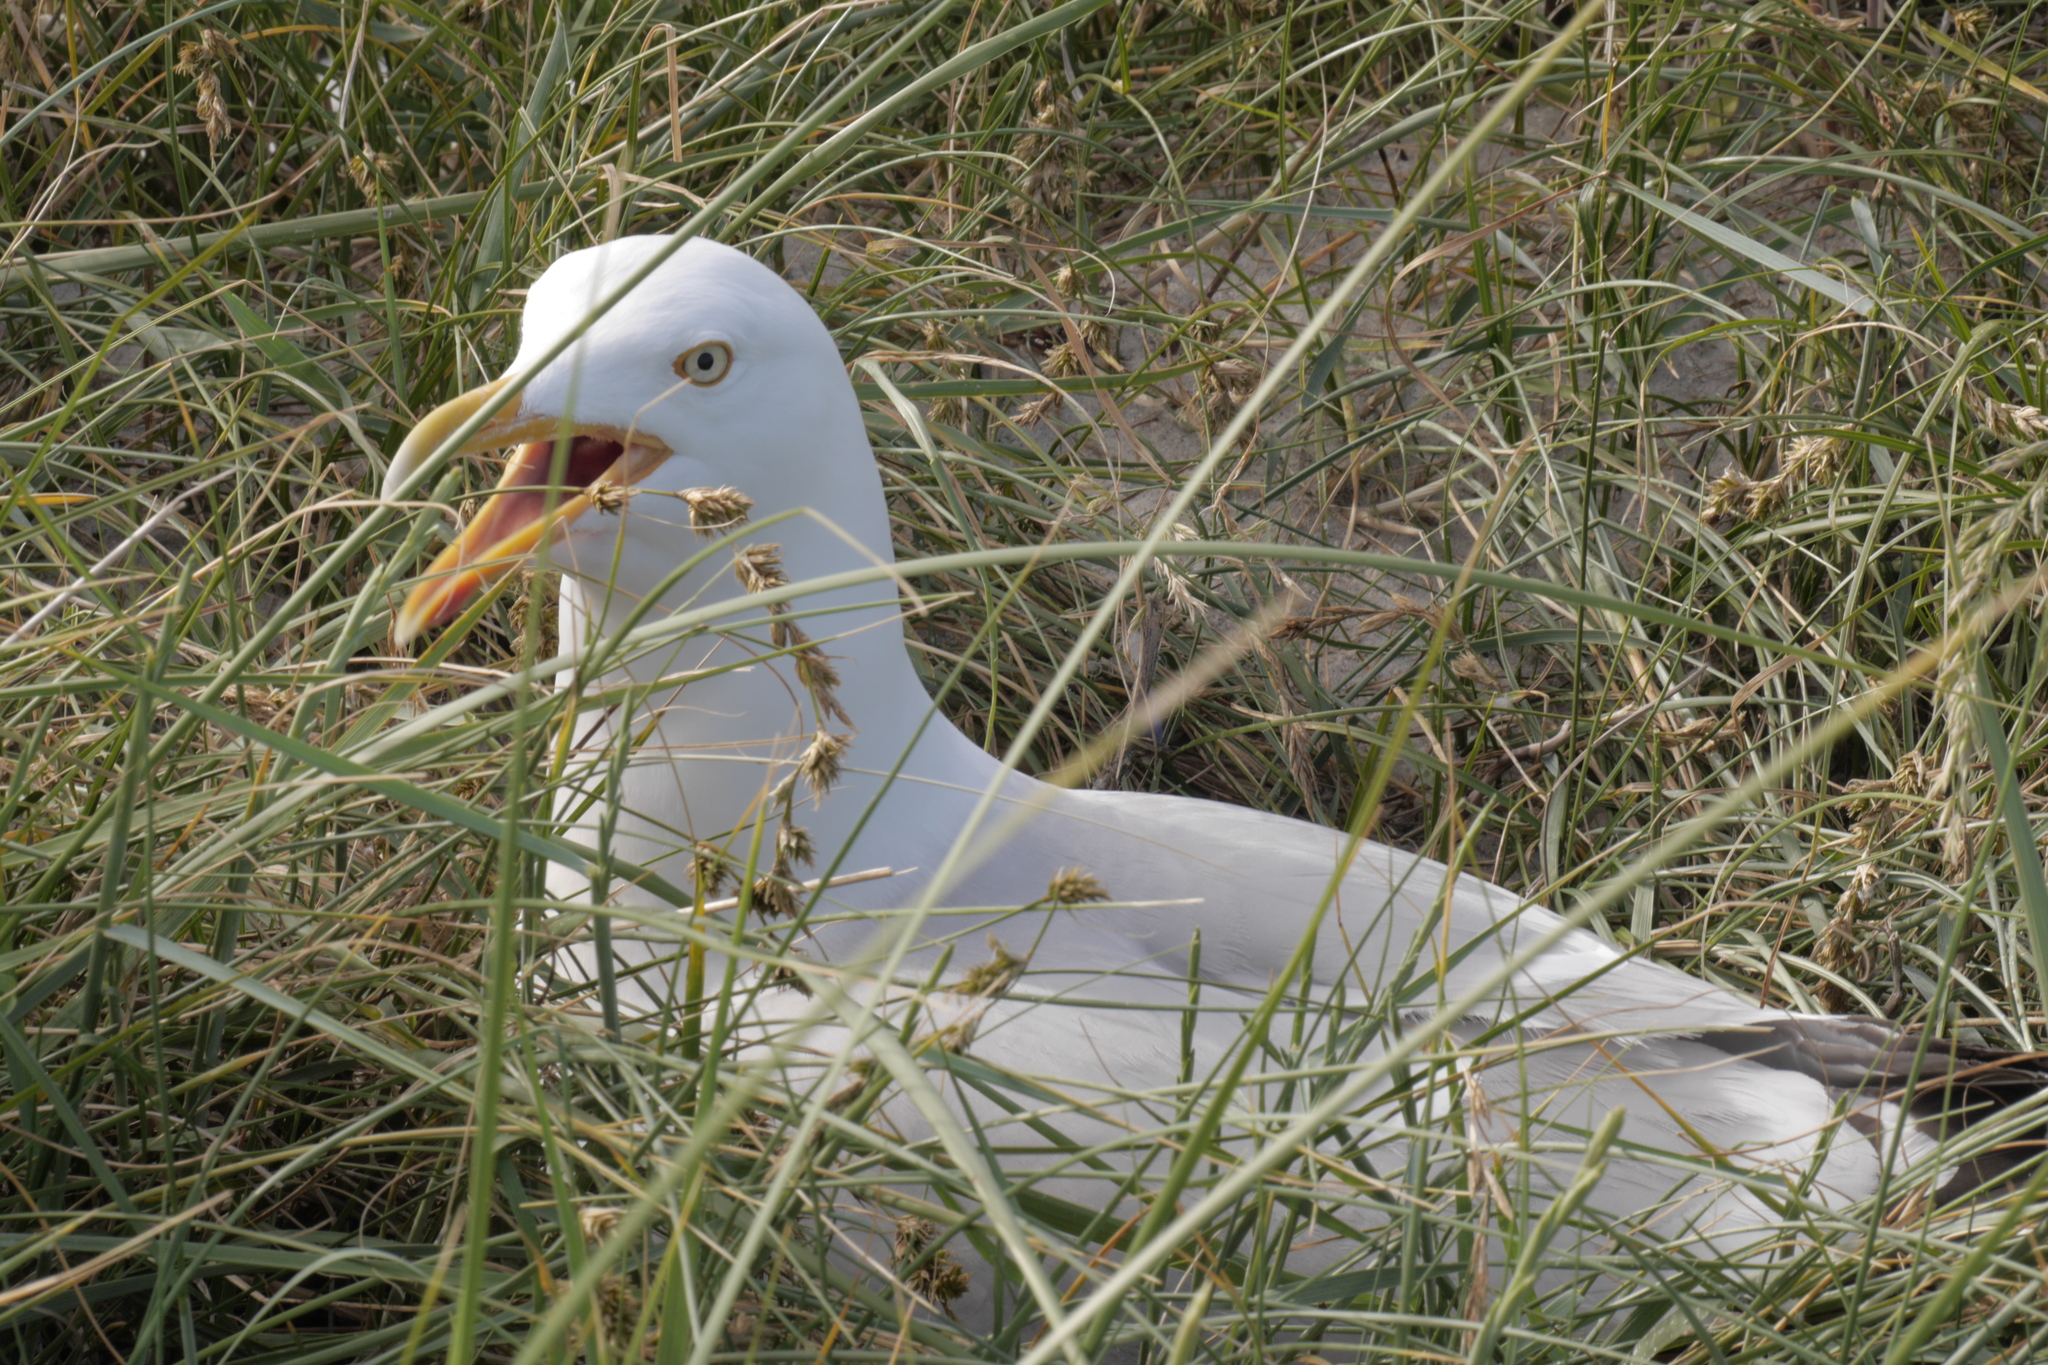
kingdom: Animalia
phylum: Chordata
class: Aves
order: Charadriiformes
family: Laridae
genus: Larus
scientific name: Larus argentatus
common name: Herring gull
